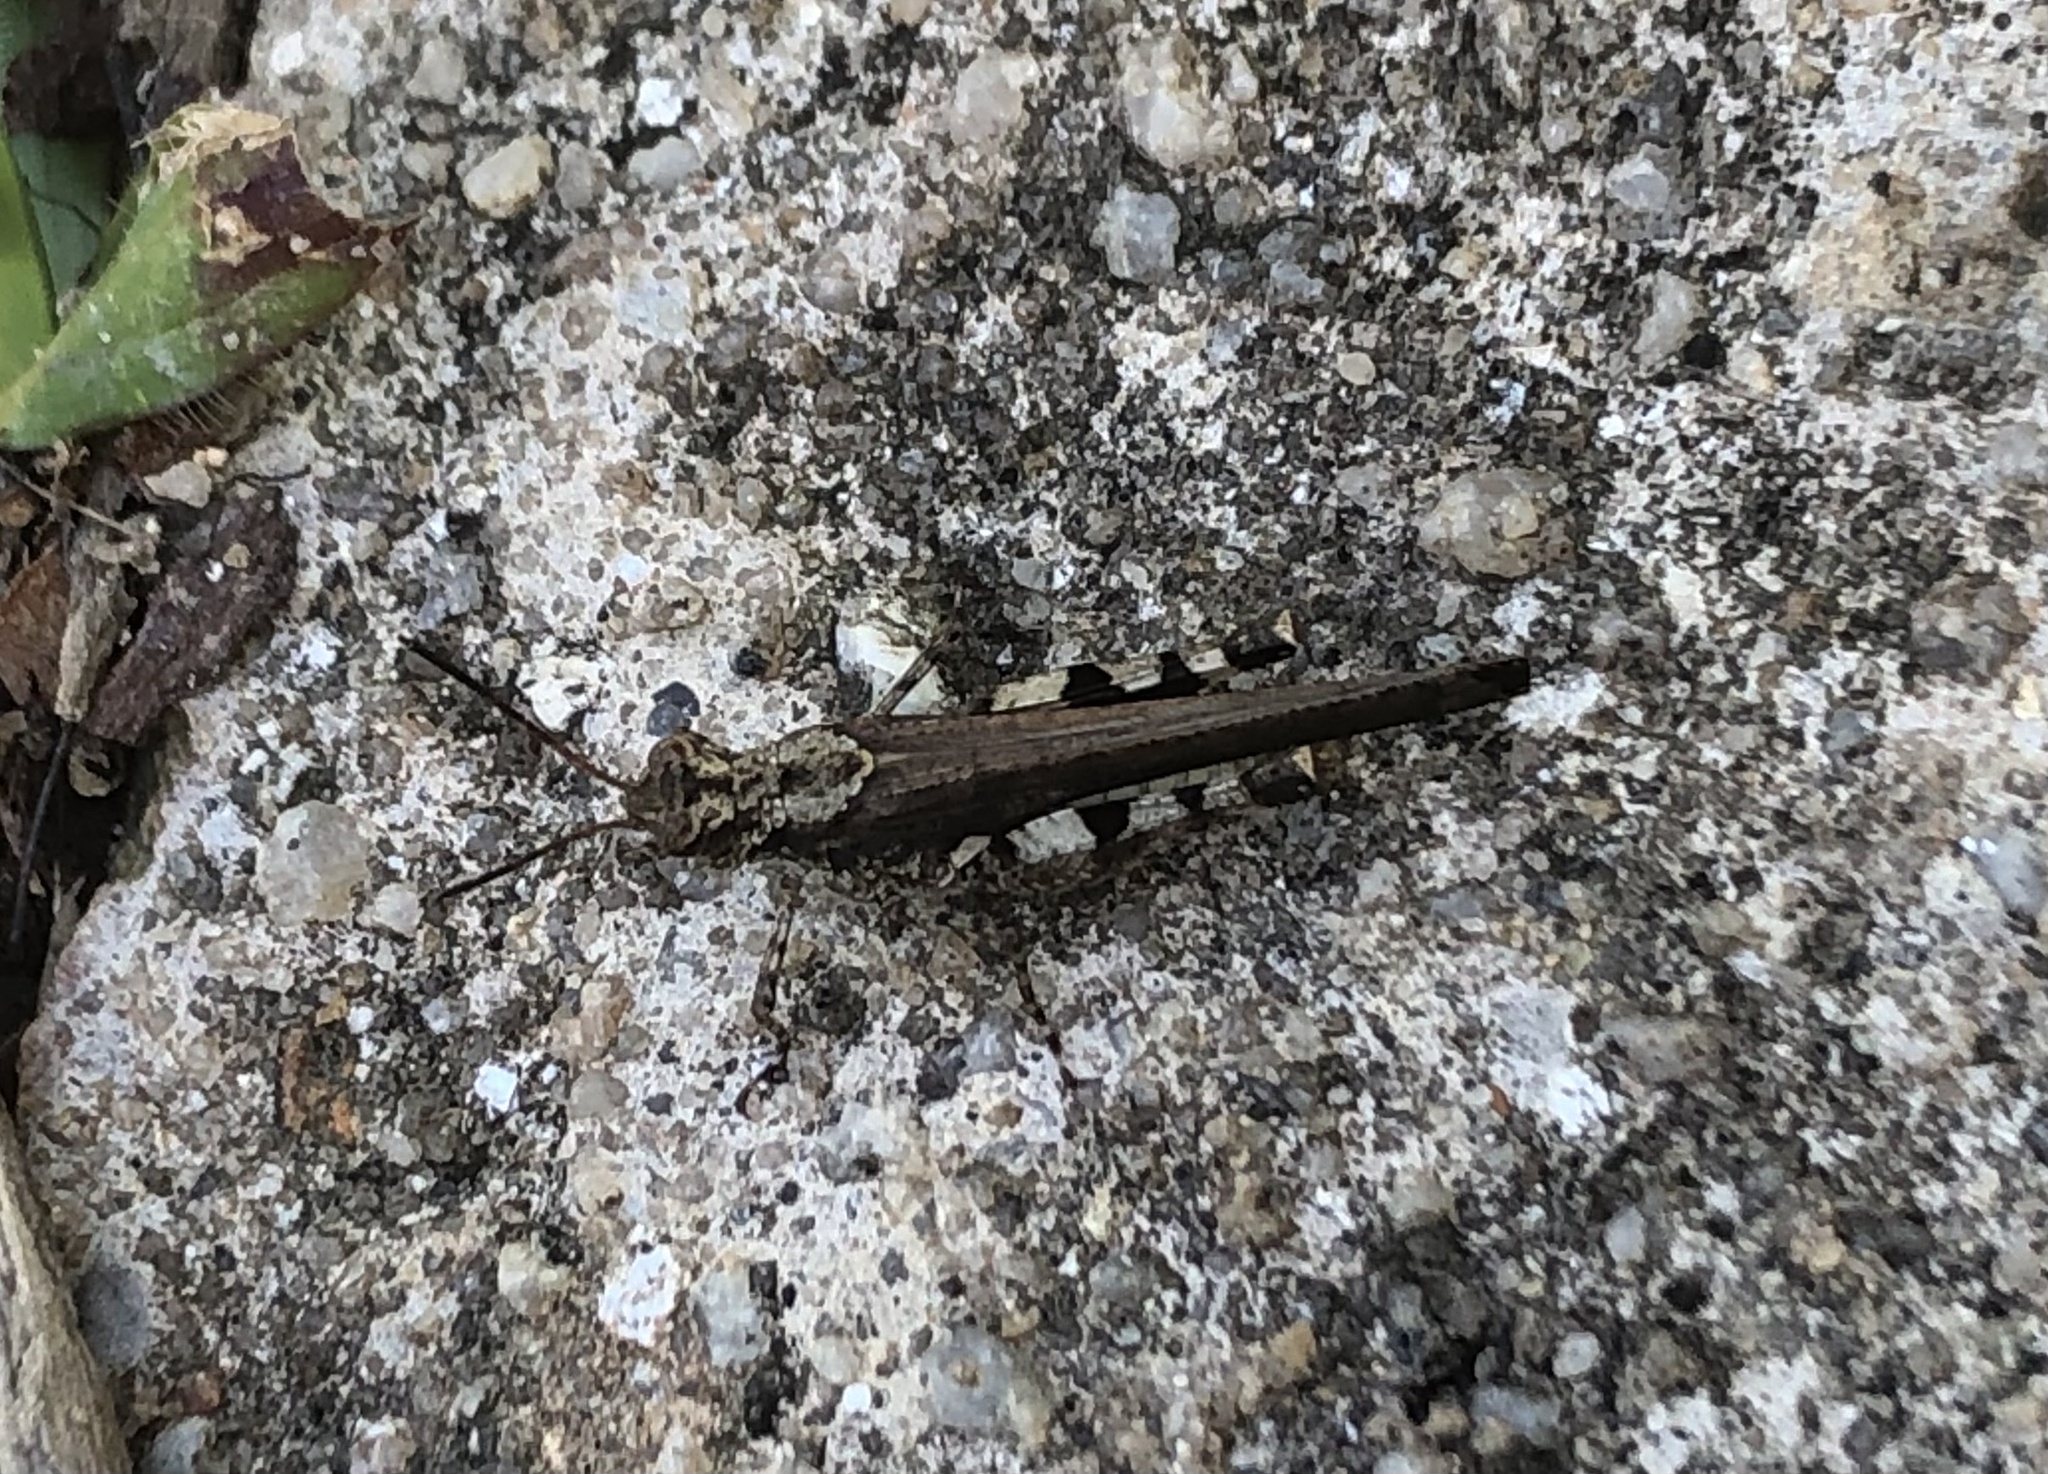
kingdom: Animalia
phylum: Arthropoda
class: Insecta
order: Orthoptera
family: Acrididae
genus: Trilophidia
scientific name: Trilophidia annulata
